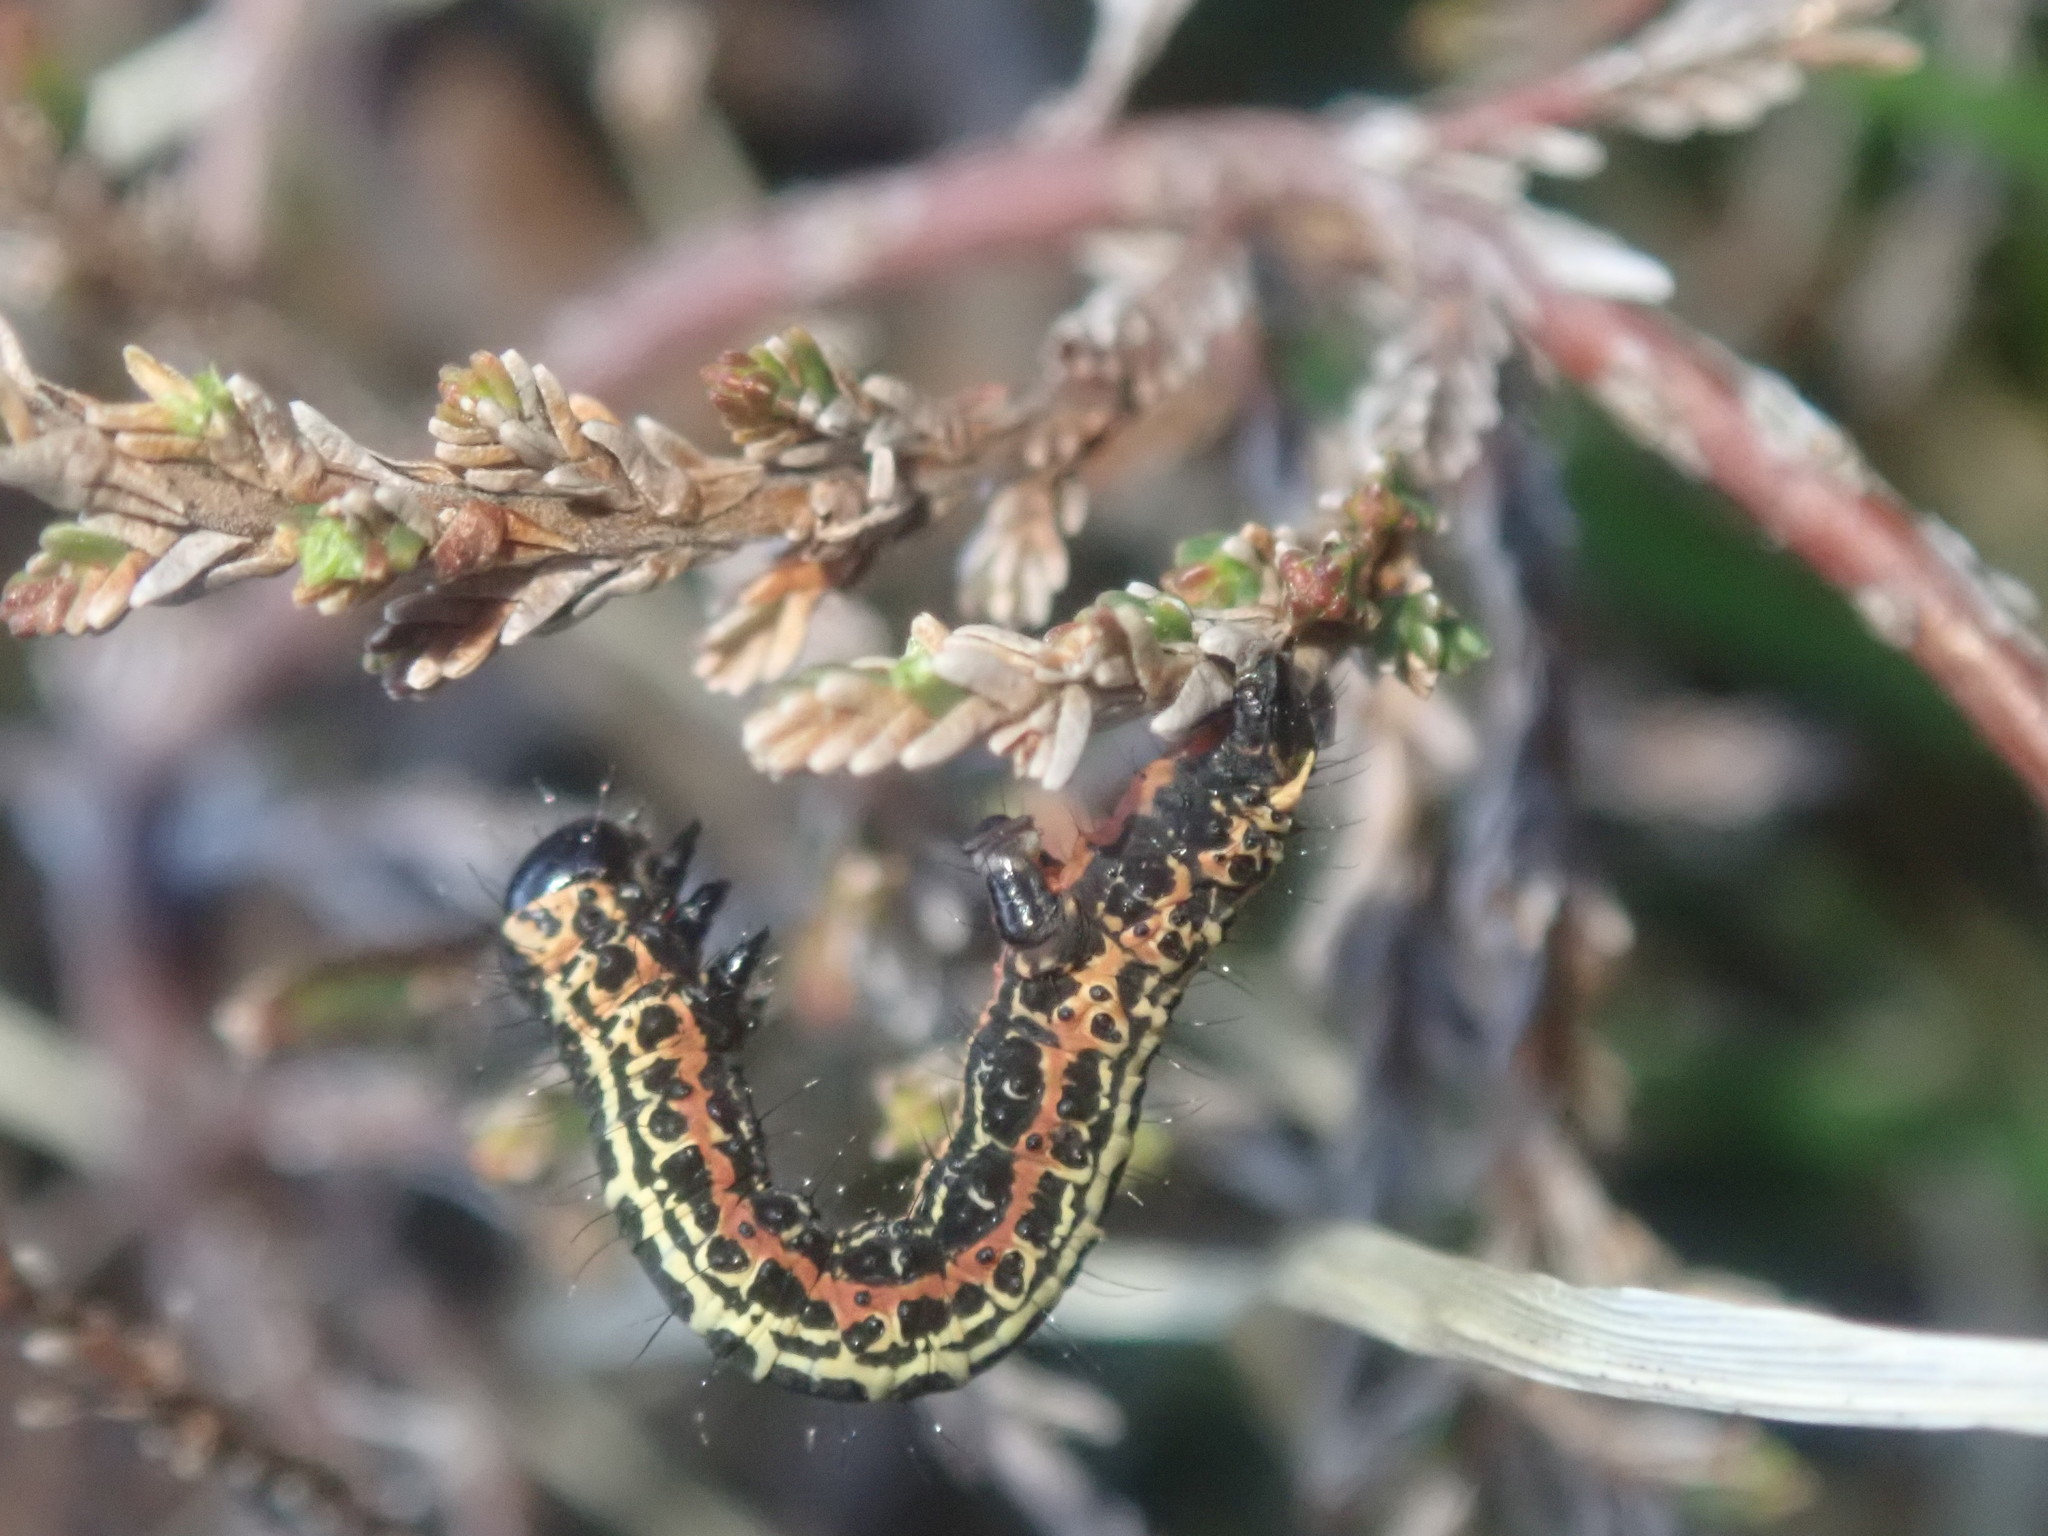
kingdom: Animalia
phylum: Arthropoda
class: Insecta
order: Lepidoptera
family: Geometridae
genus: Abraxas
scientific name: Abraxas grossulariata
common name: Magpie
